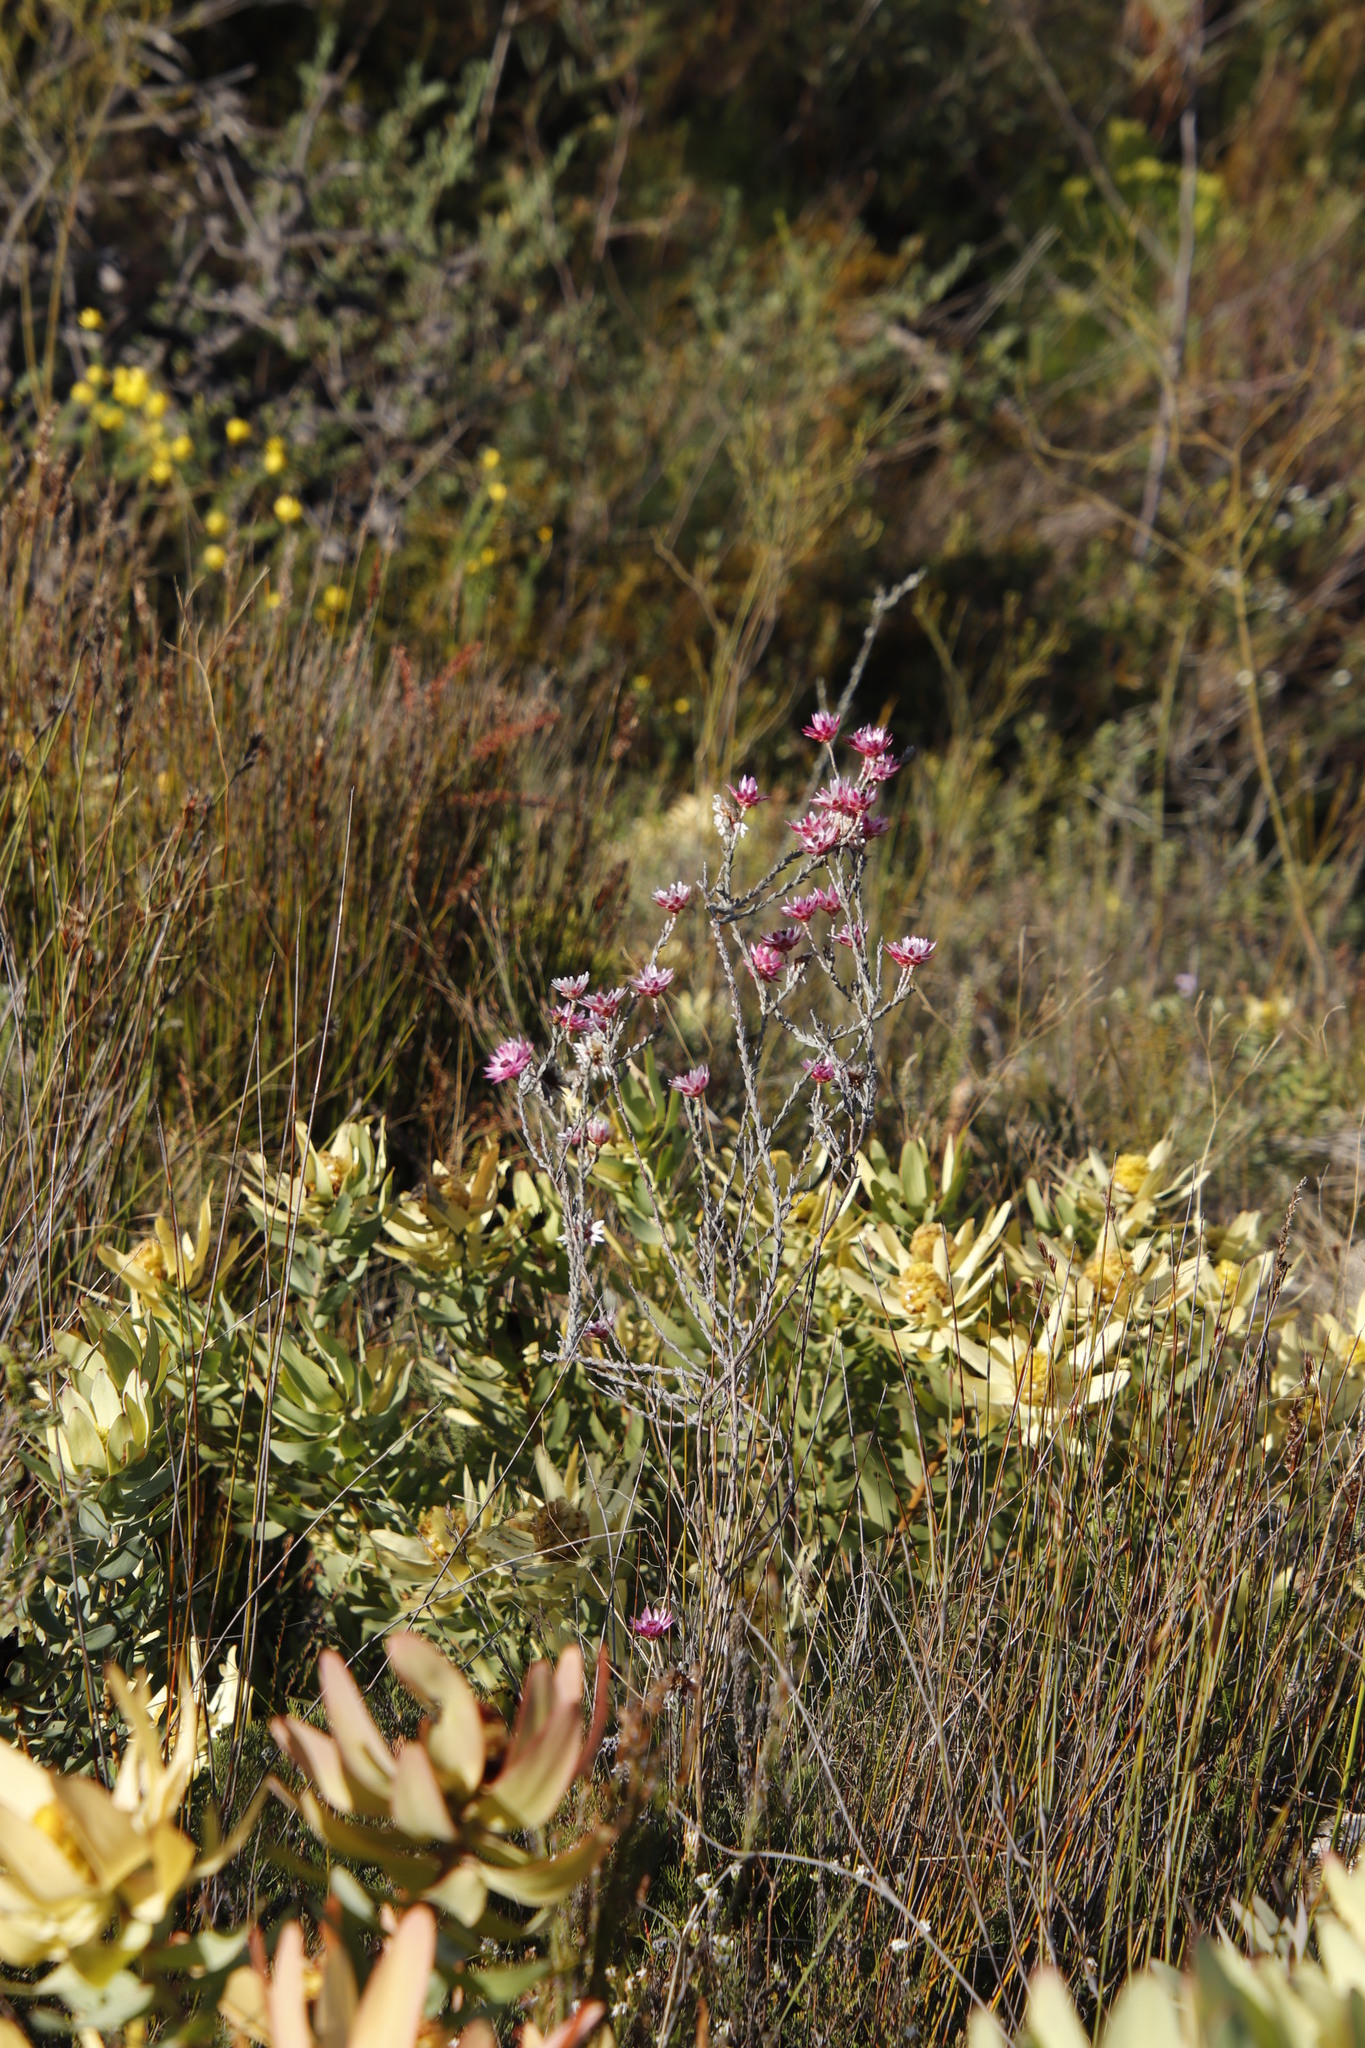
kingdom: Plantae
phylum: Tracheophyta
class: Magnoliopsida
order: Asterales
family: Asteraceae
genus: Syncarpha
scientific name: Syncarpha canescens
